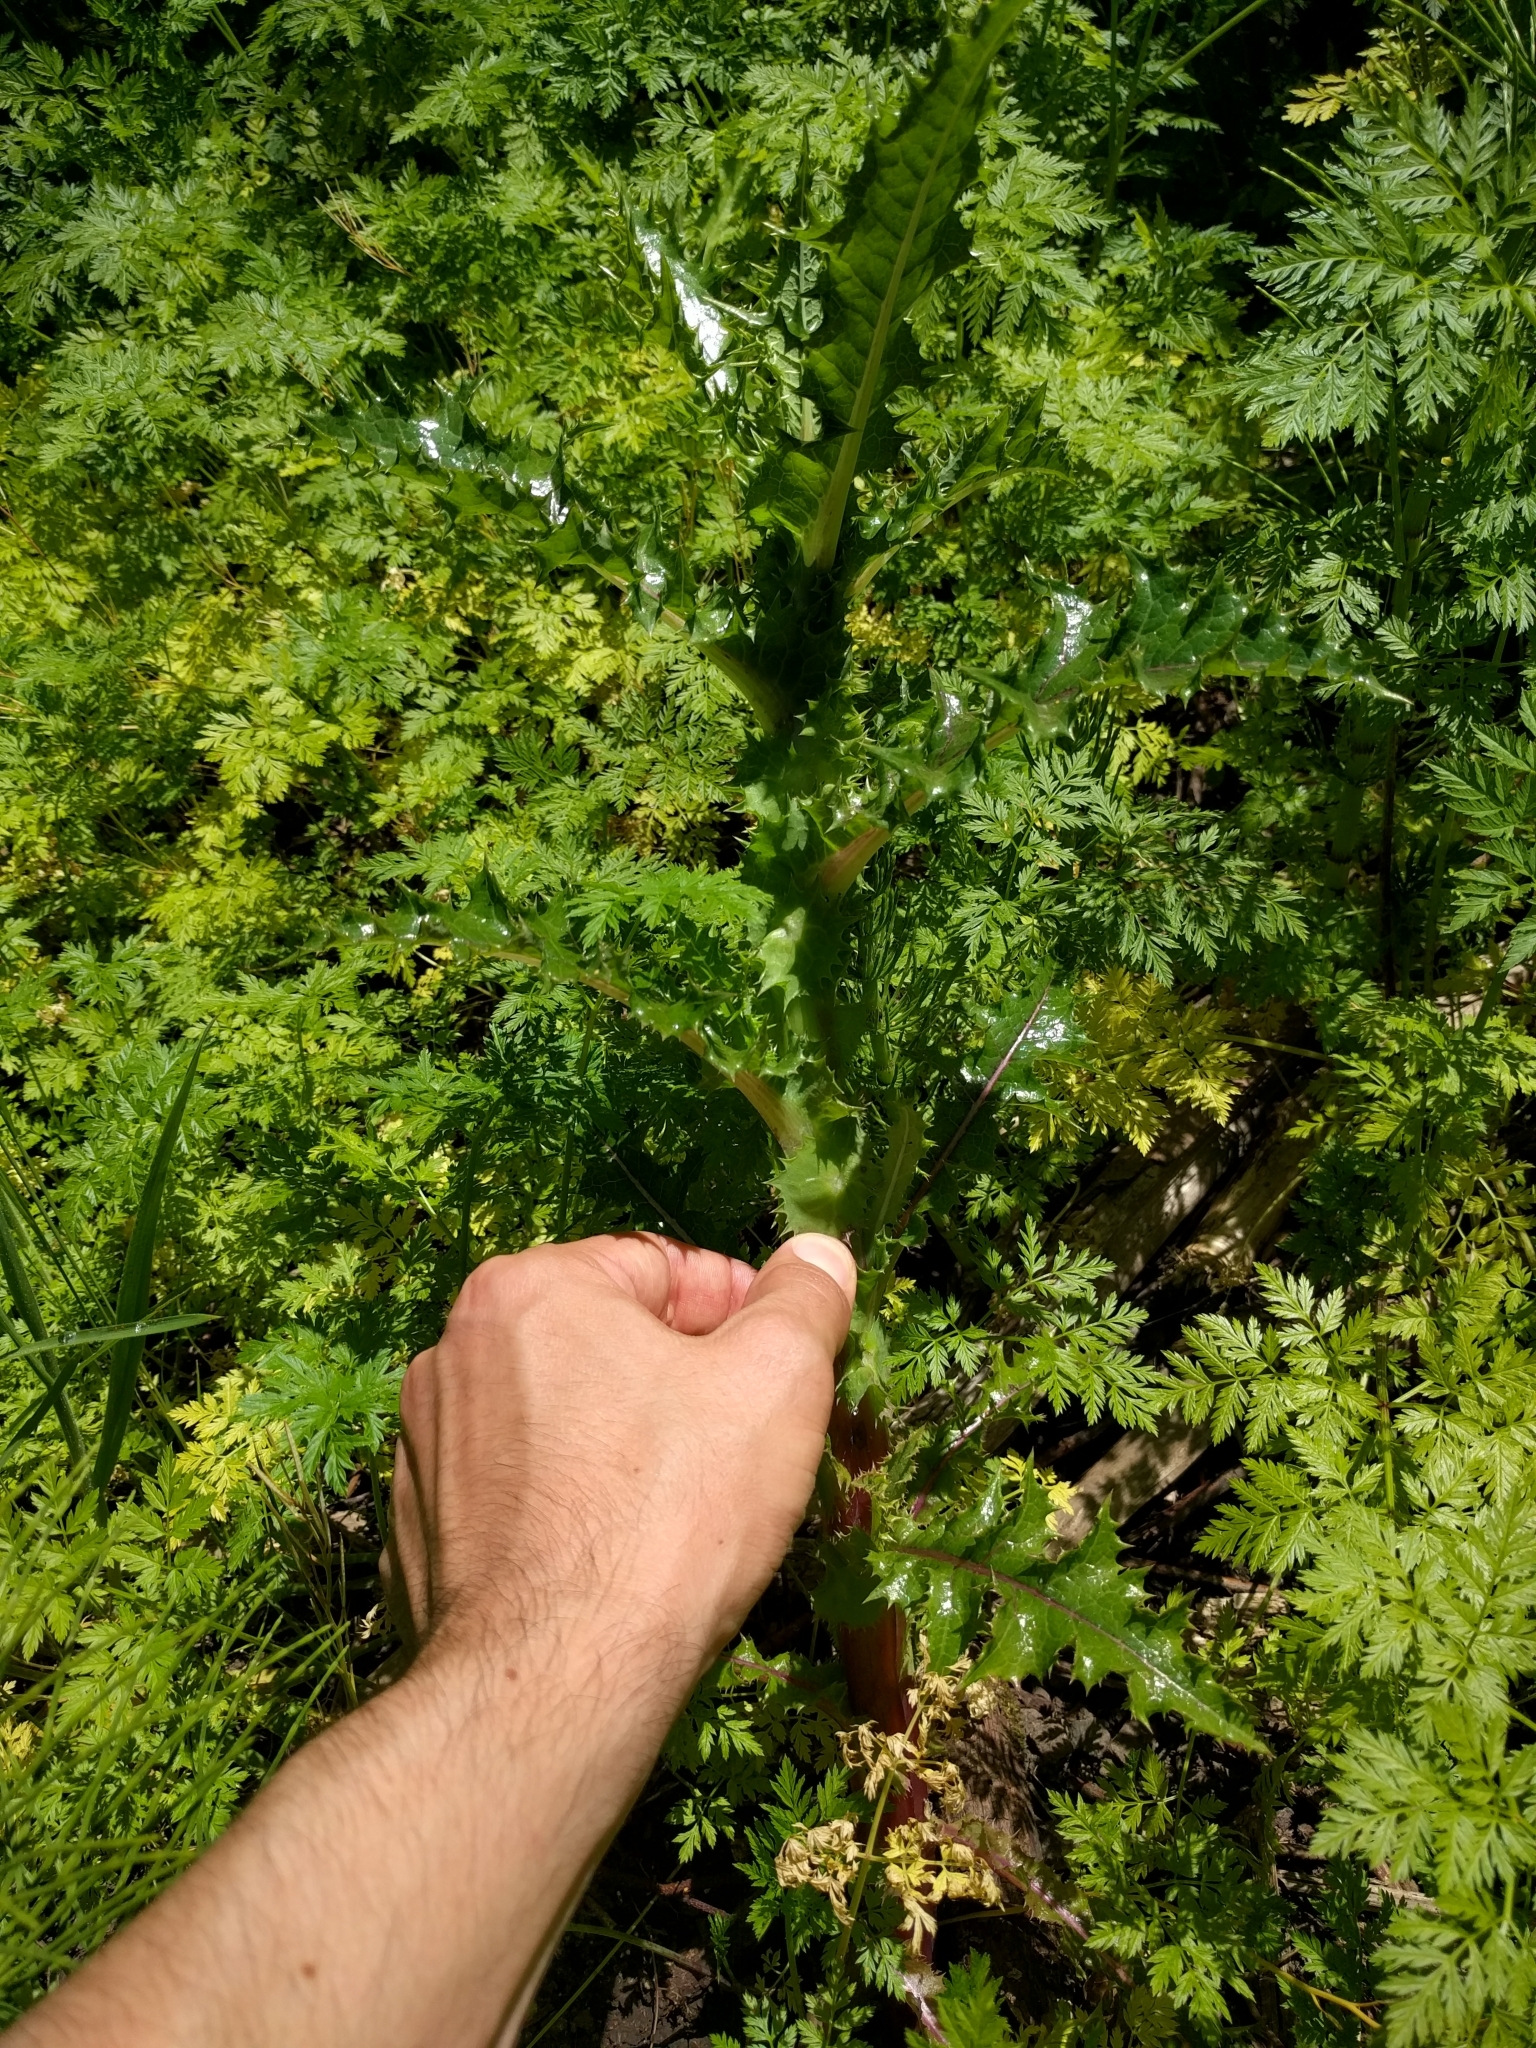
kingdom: Plantae
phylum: Tracheophyta
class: Magnoliopsida
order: Asterales
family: Asteraceae
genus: Sonchus
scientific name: Sonchus asper
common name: Prickly sow-thistle
